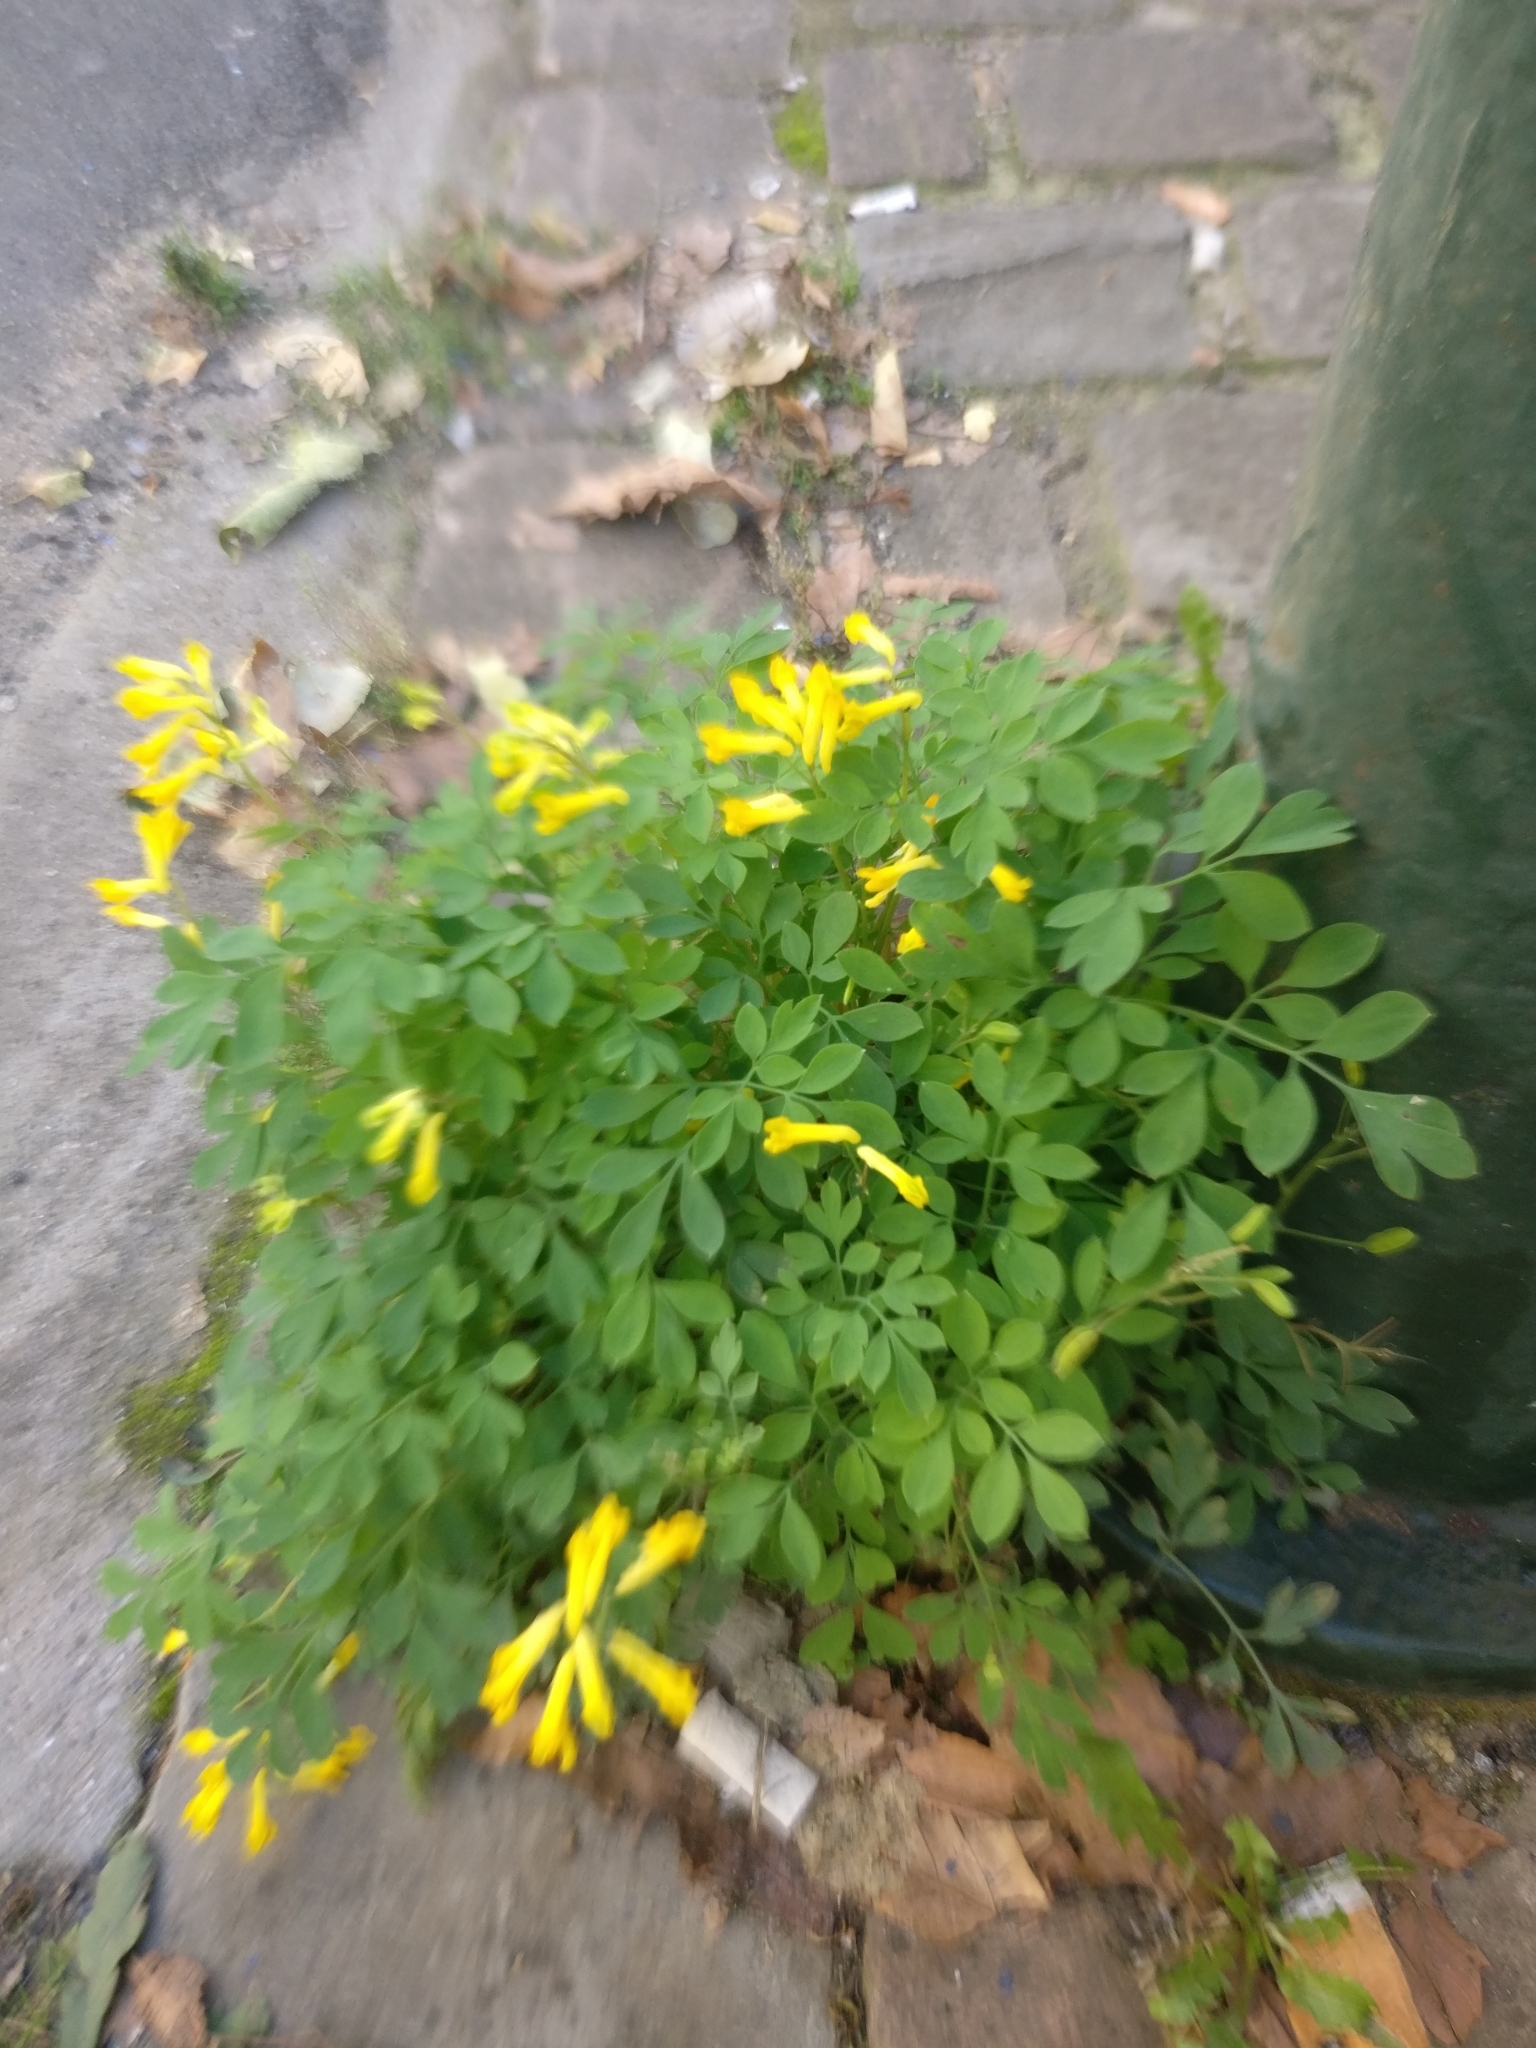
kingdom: Plantae
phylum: Tracheophyta
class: Magnoliopsida
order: Ranunculales
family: Papaveraceae
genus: Pseudofumaria
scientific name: Pseudofumaria lutea
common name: Yellow corydalis
